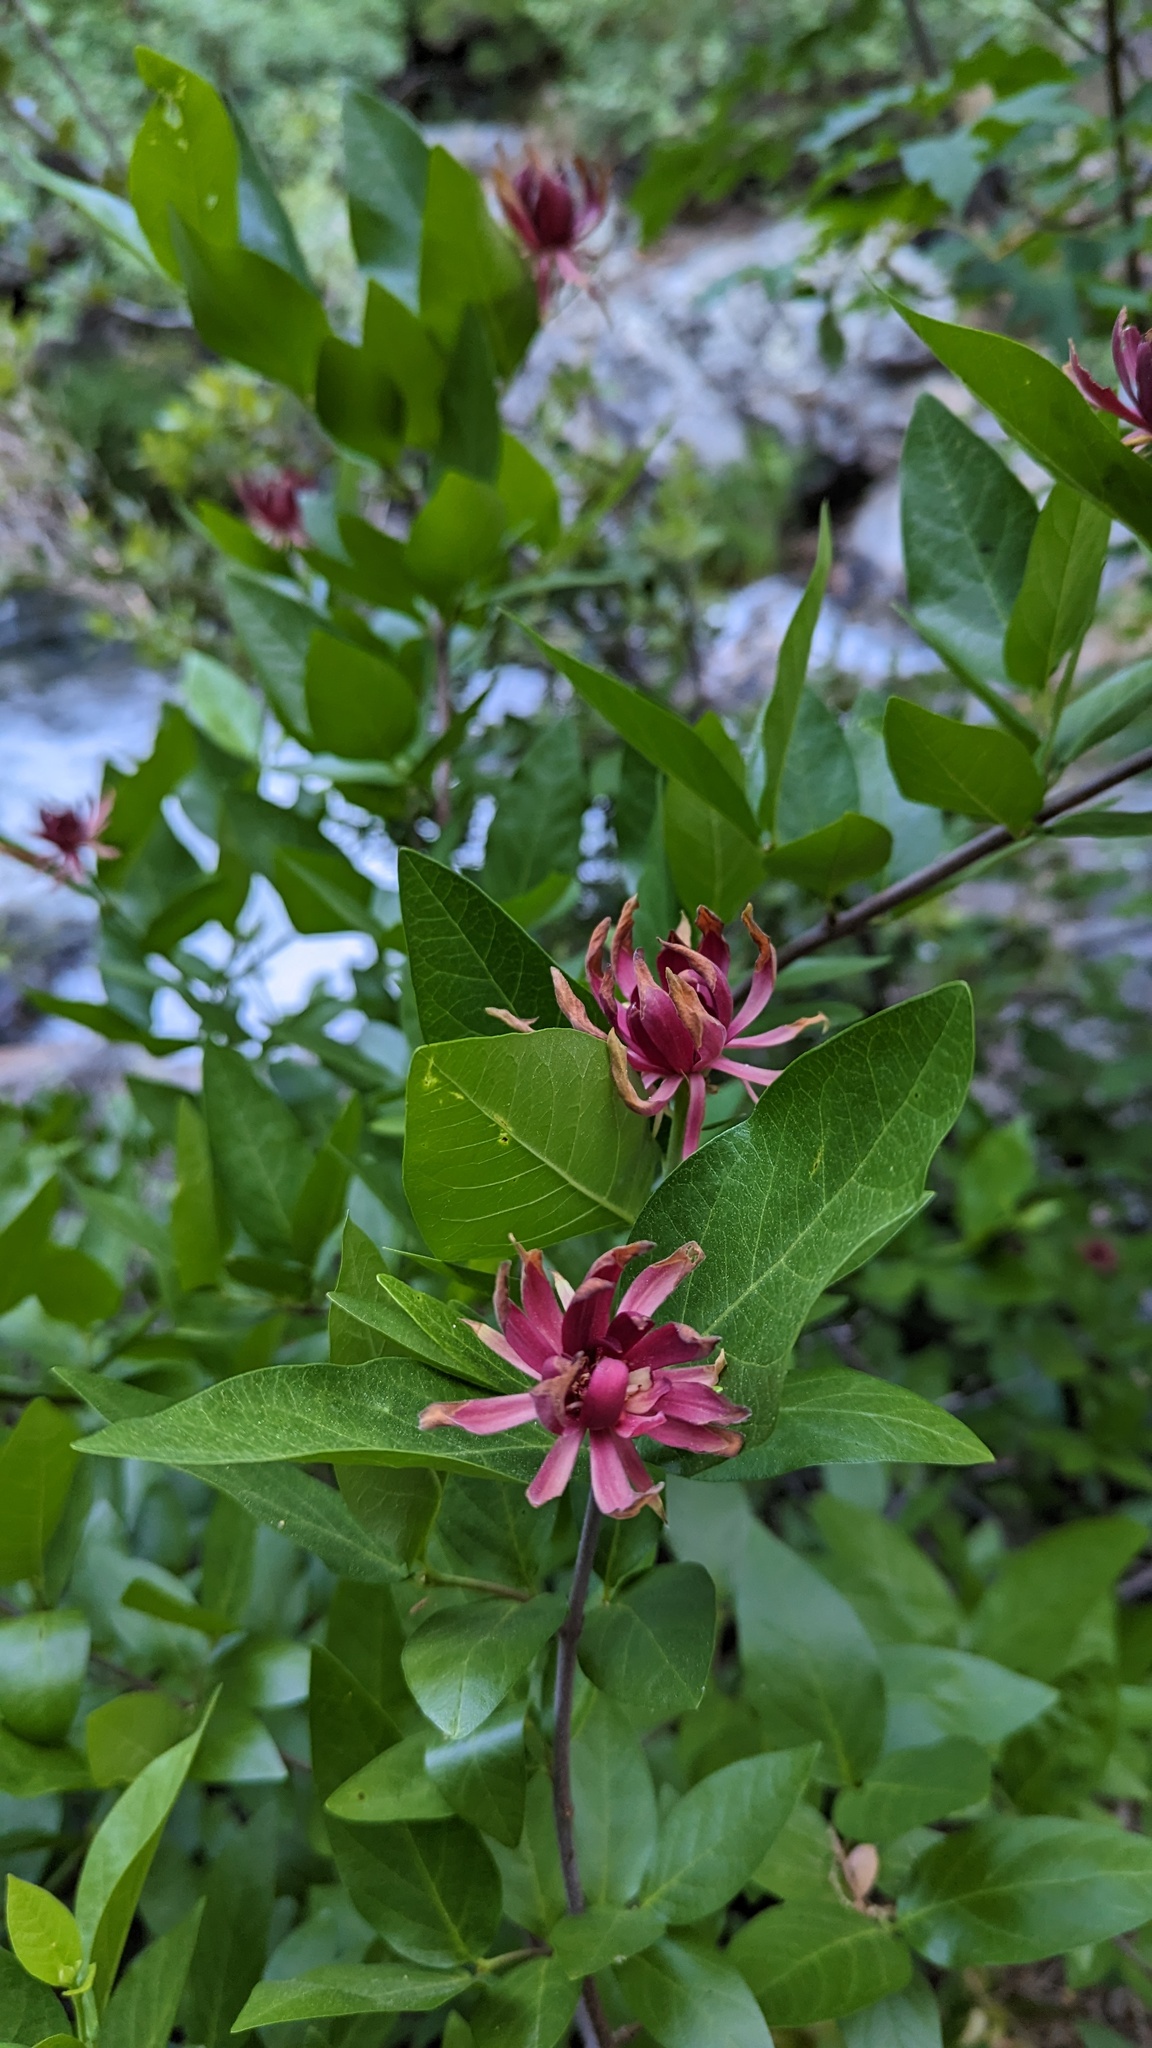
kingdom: Plantae
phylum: Tracheophyta
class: Magnoliopsida
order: Laurales
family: Calycanthaceae
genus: Calycanthus
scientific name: Calycanthus occidentalis
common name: California spicebush
